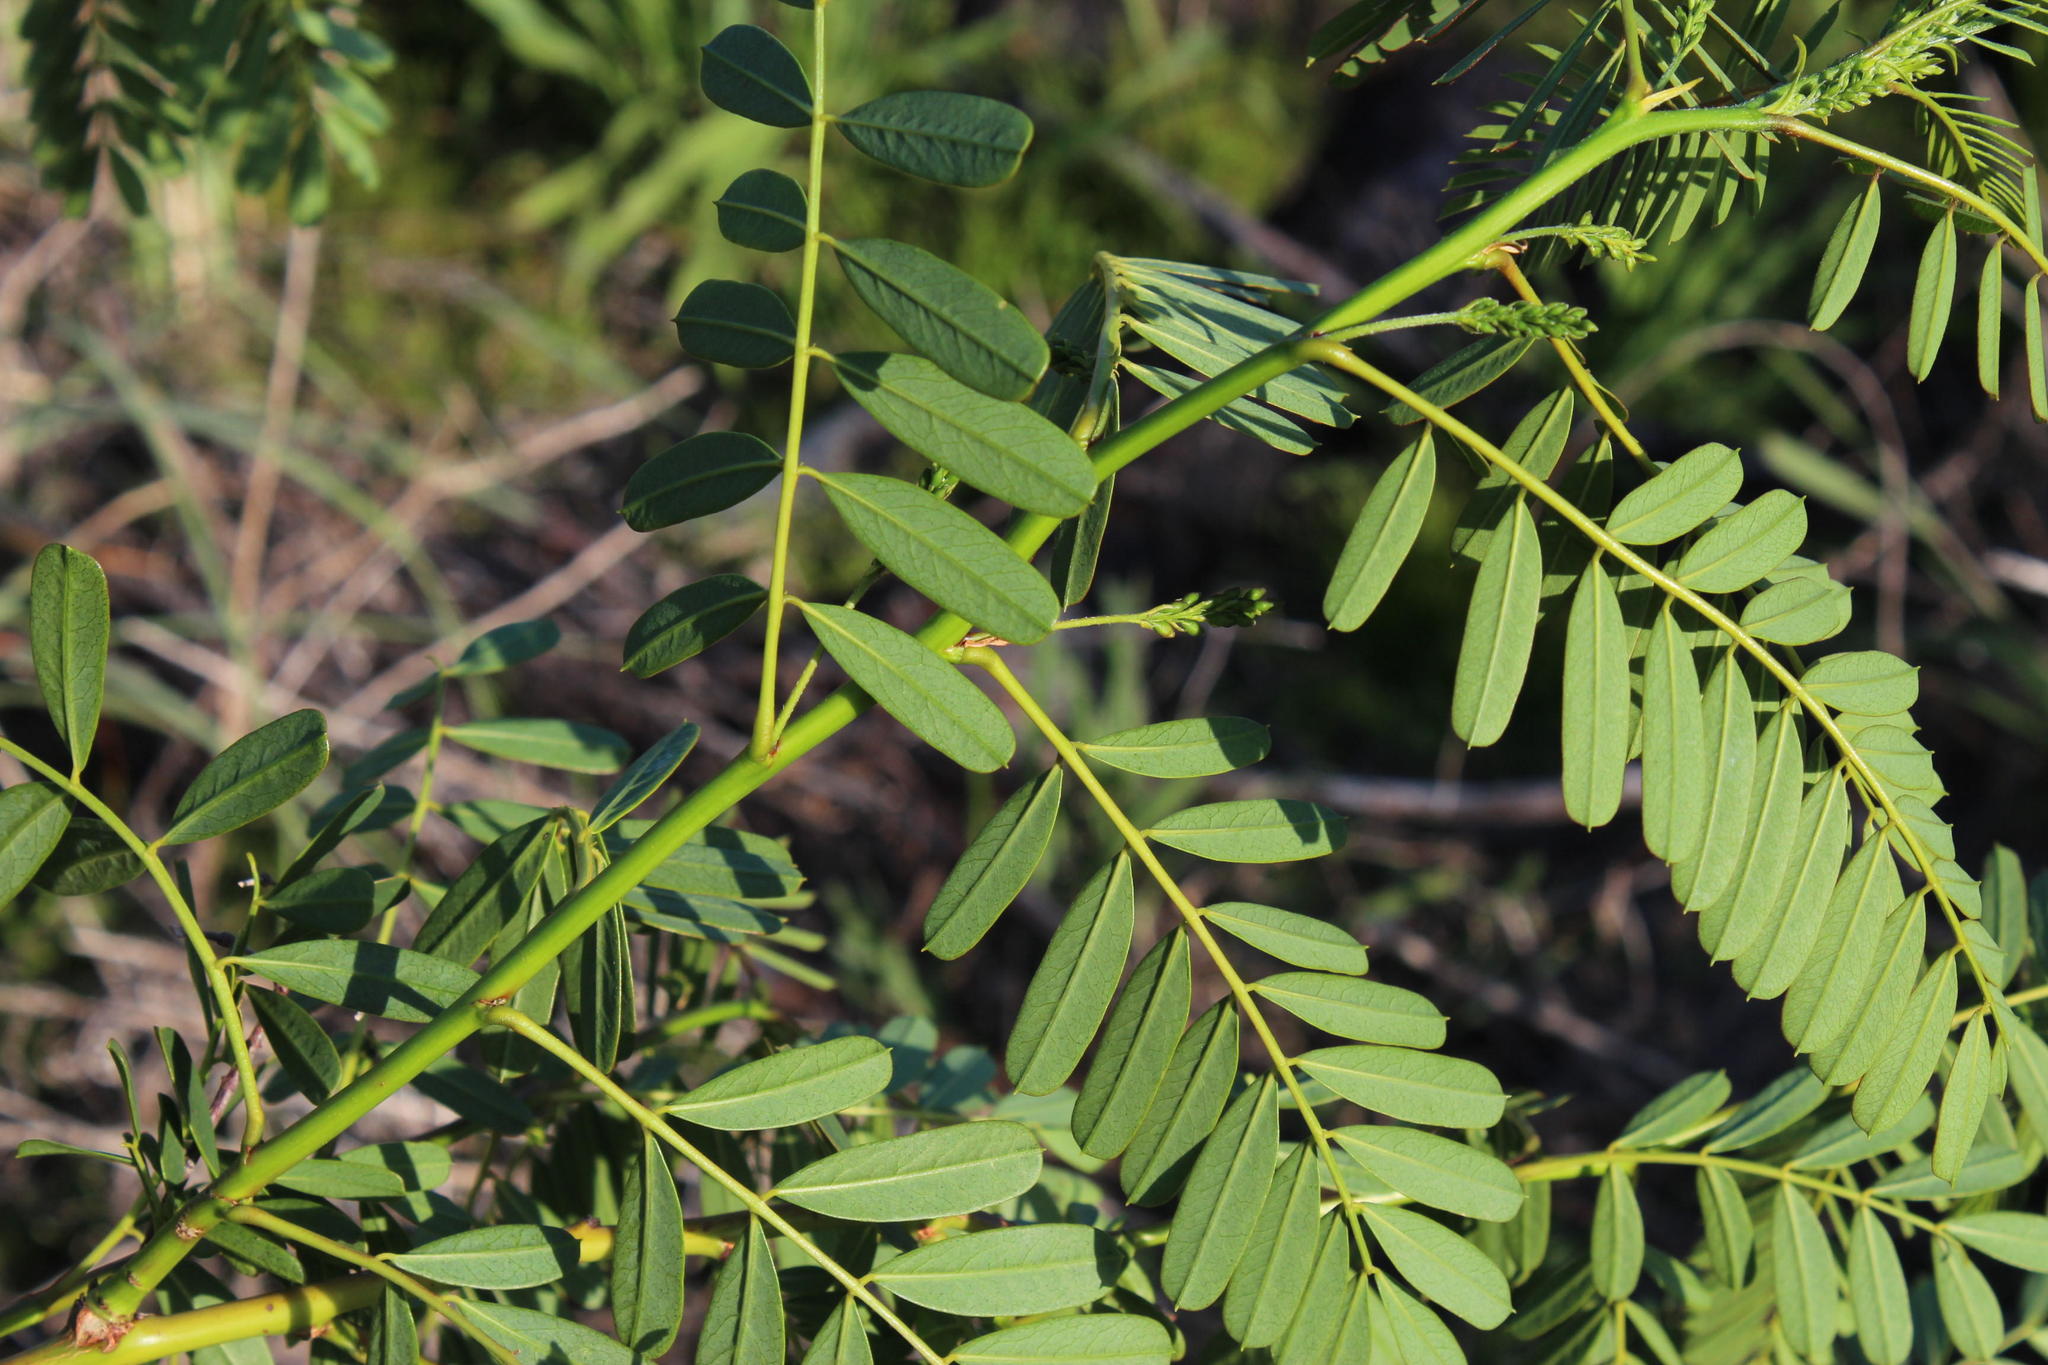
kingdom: Plantae
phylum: Tracheophyta
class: Magnoliopsida
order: Fabales
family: Fabaceae
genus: Sesbania
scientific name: Sesbania punicea
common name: Rattlebox
